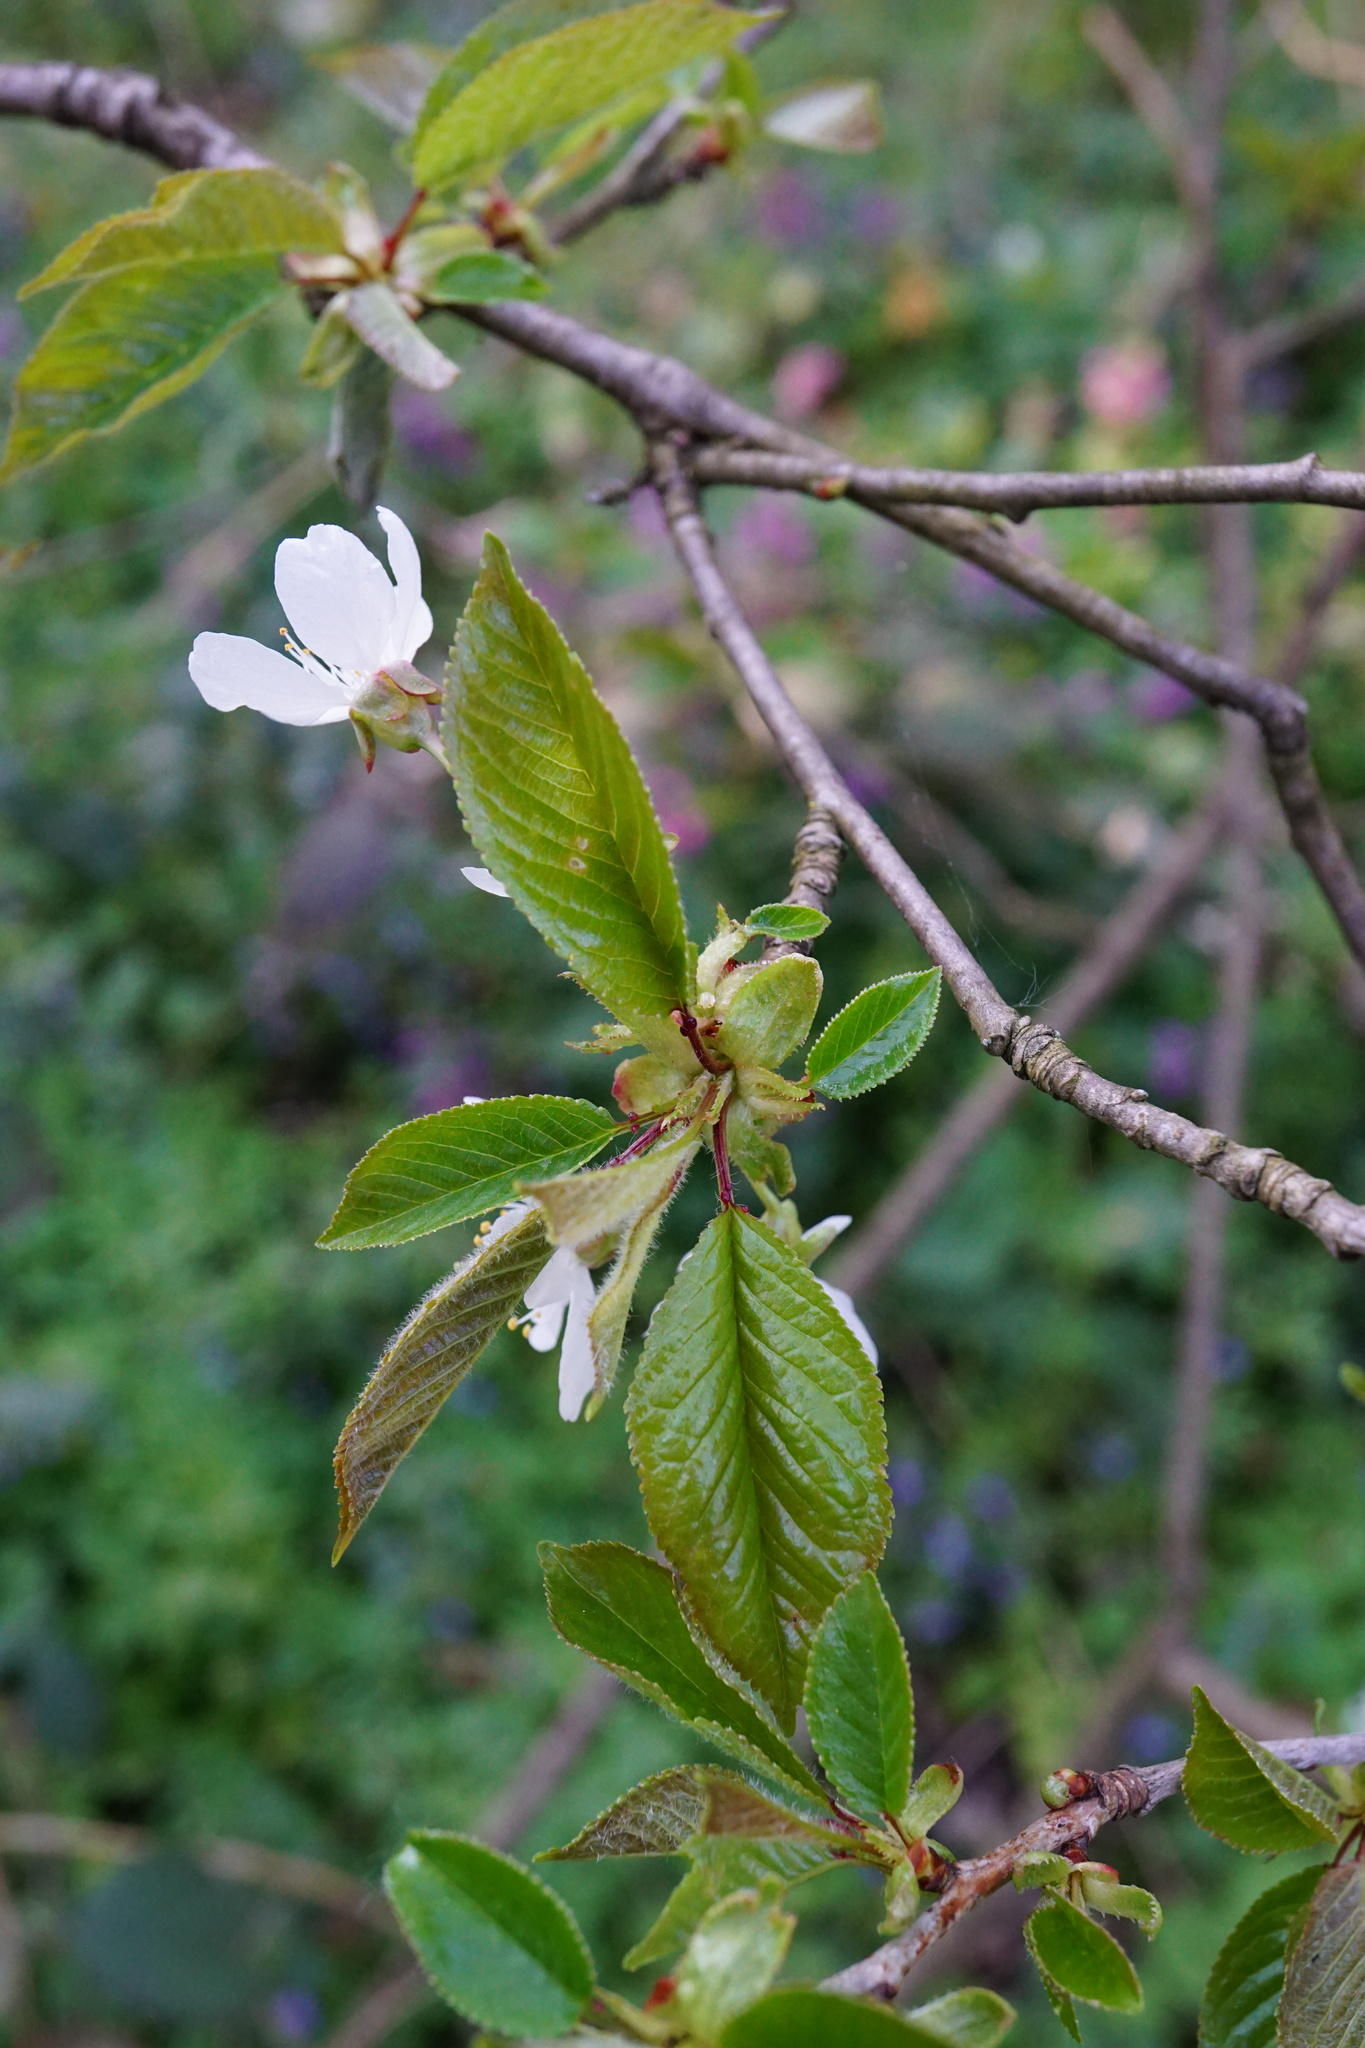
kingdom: Plantae
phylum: Tracheophyta
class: Magnoliopsida
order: Rosales
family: Rosaceae
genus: Prunus
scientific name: Prunus avium
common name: Sweet cherry
